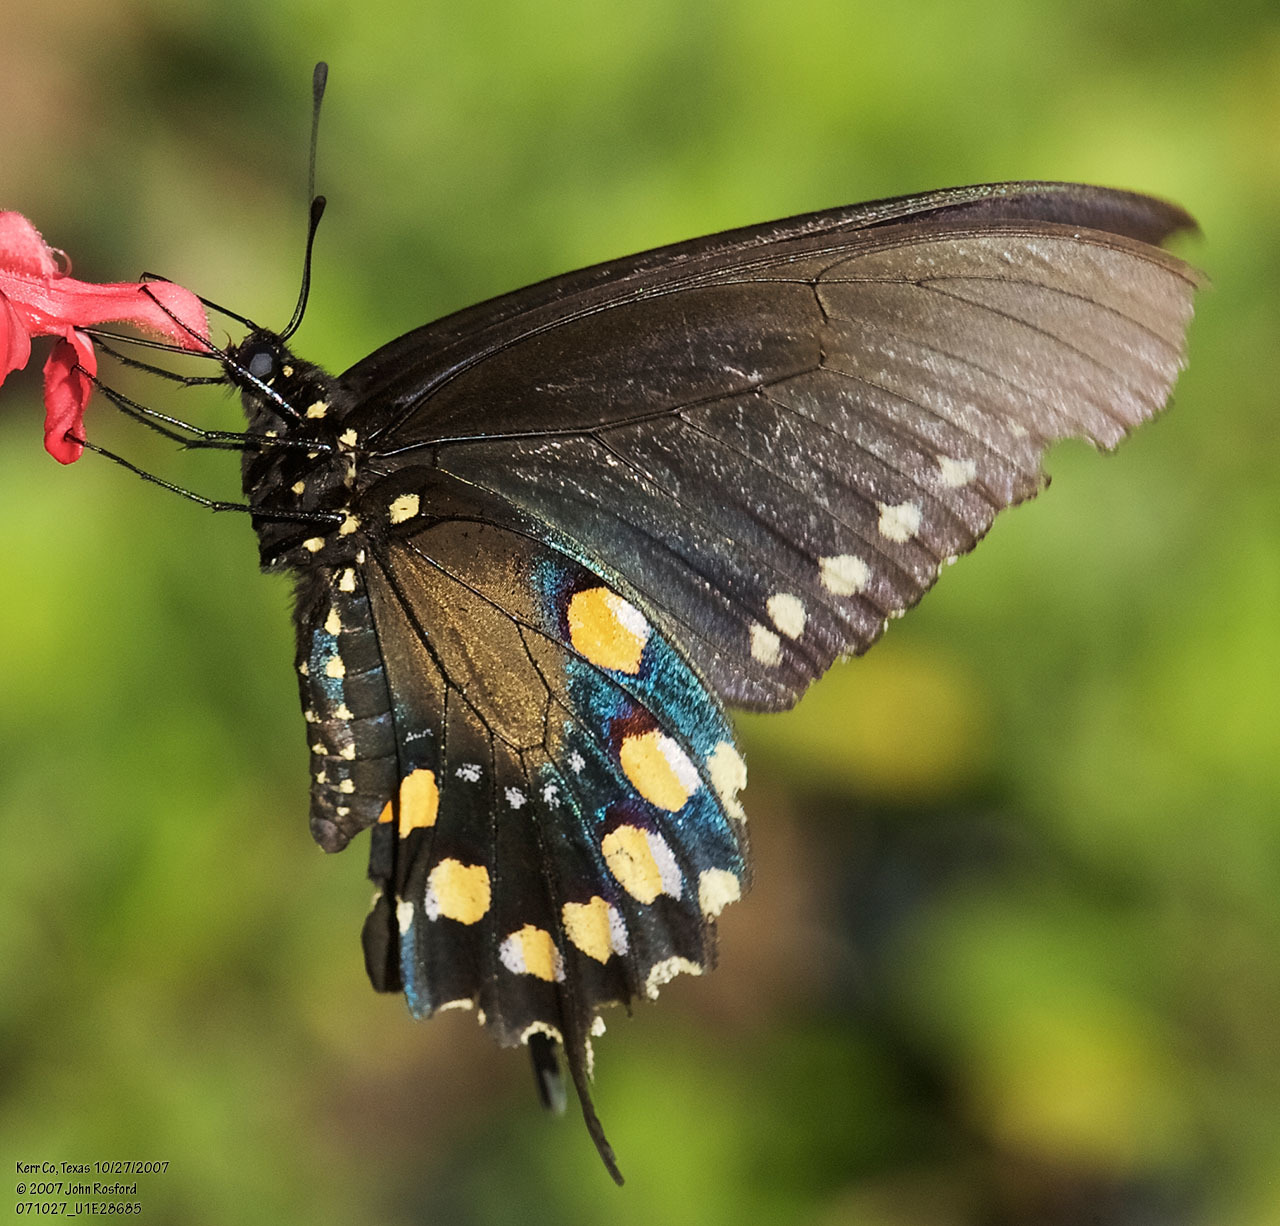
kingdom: Animalia
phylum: Arthropoda
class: Insecta
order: Lepidoptera
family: Papilionidae
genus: Battus
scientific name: Battus philenor
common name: Pipevine swallowtail
